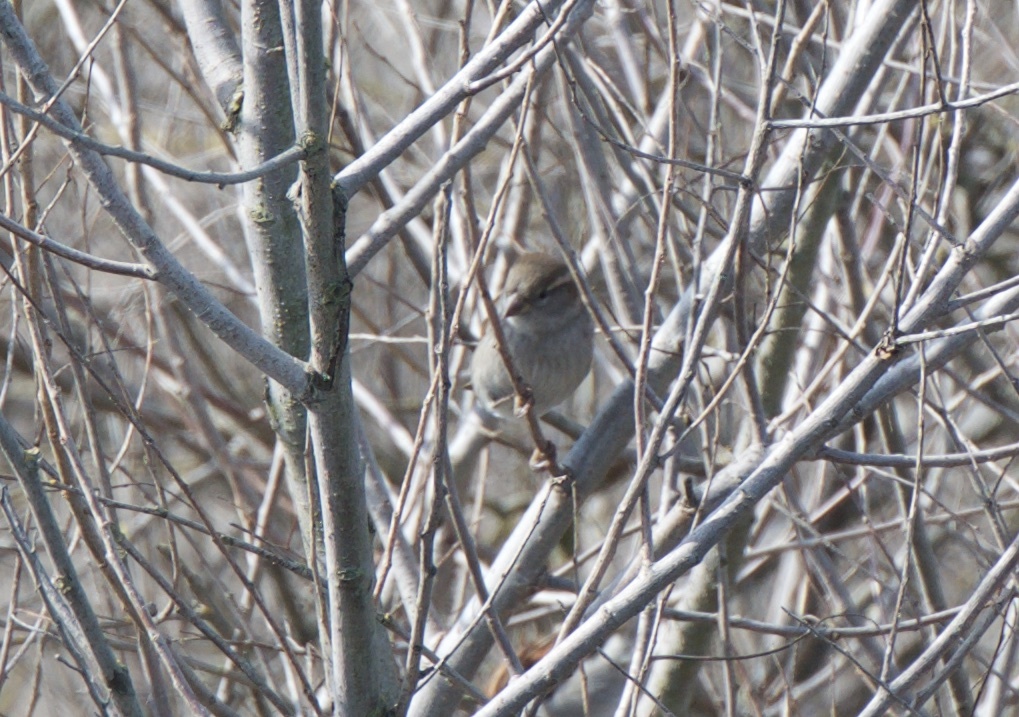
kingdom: Animalia
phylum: Chordata
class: Aves
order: Passeriformes
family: Passeridae
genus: Passer
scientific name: Passer domesticus
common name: House sparrow
